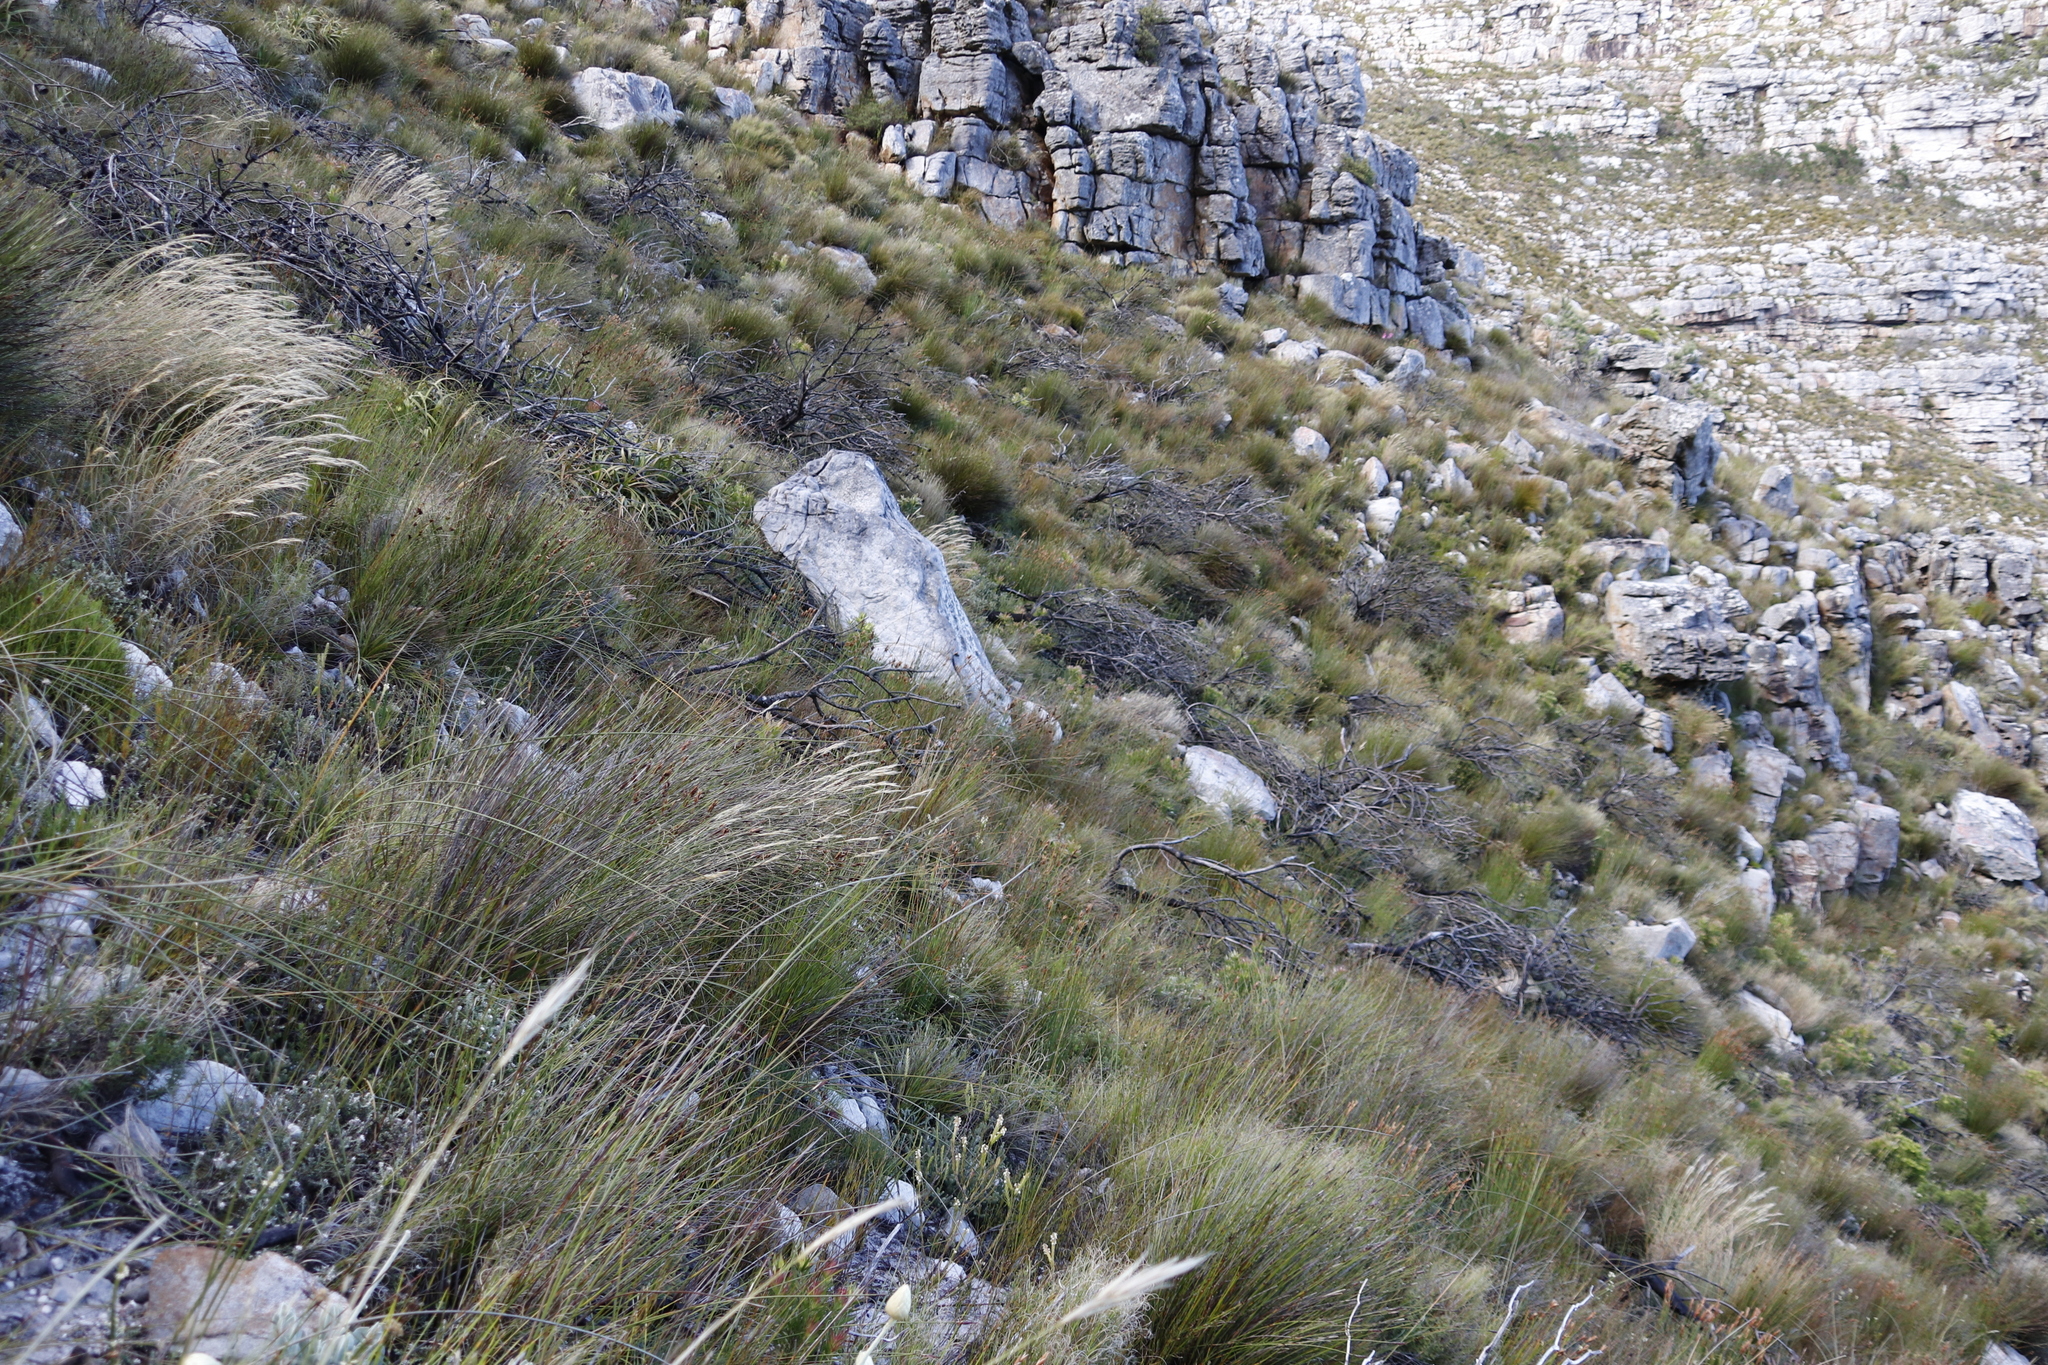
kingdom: Plantae
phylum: Tracheophyta
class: Magnoliopsida
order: Proteales
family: Proteaceae
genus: Protea
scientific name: Protea lepidocarpodendron
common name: Black-bearded protea
